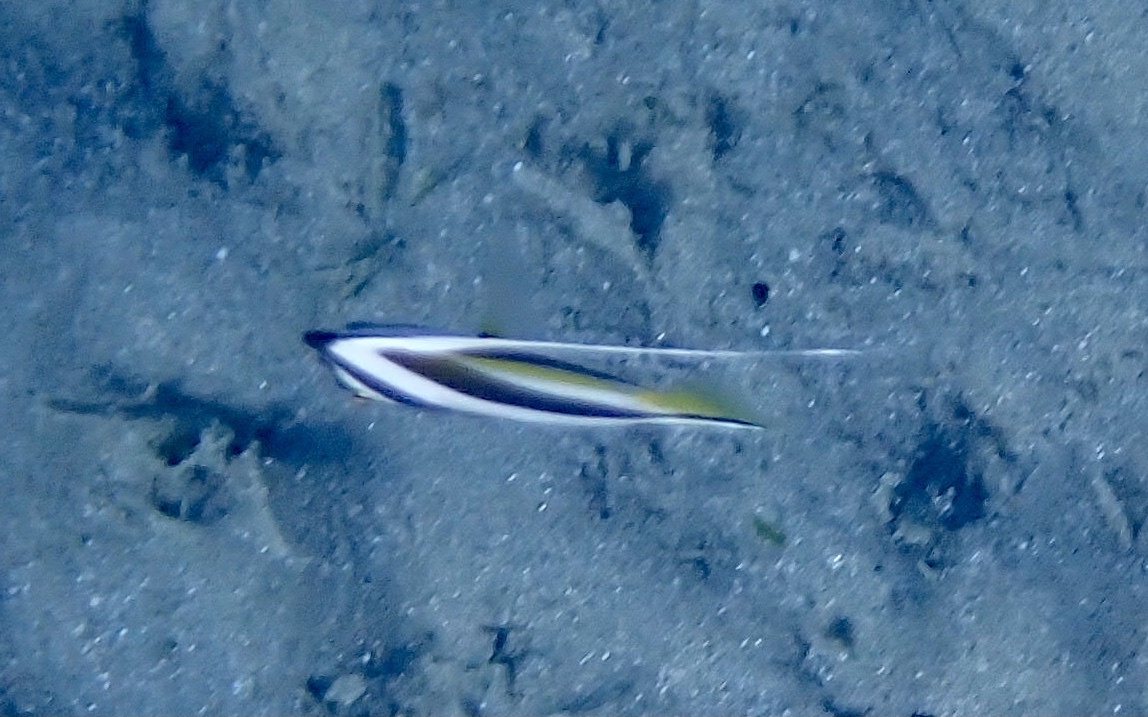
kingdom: Animalia
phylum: Chordata
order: Perciformes
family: Chaetodontidae
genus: Heniochus
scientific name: Heniochus diphreutes
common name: Pennantfish
